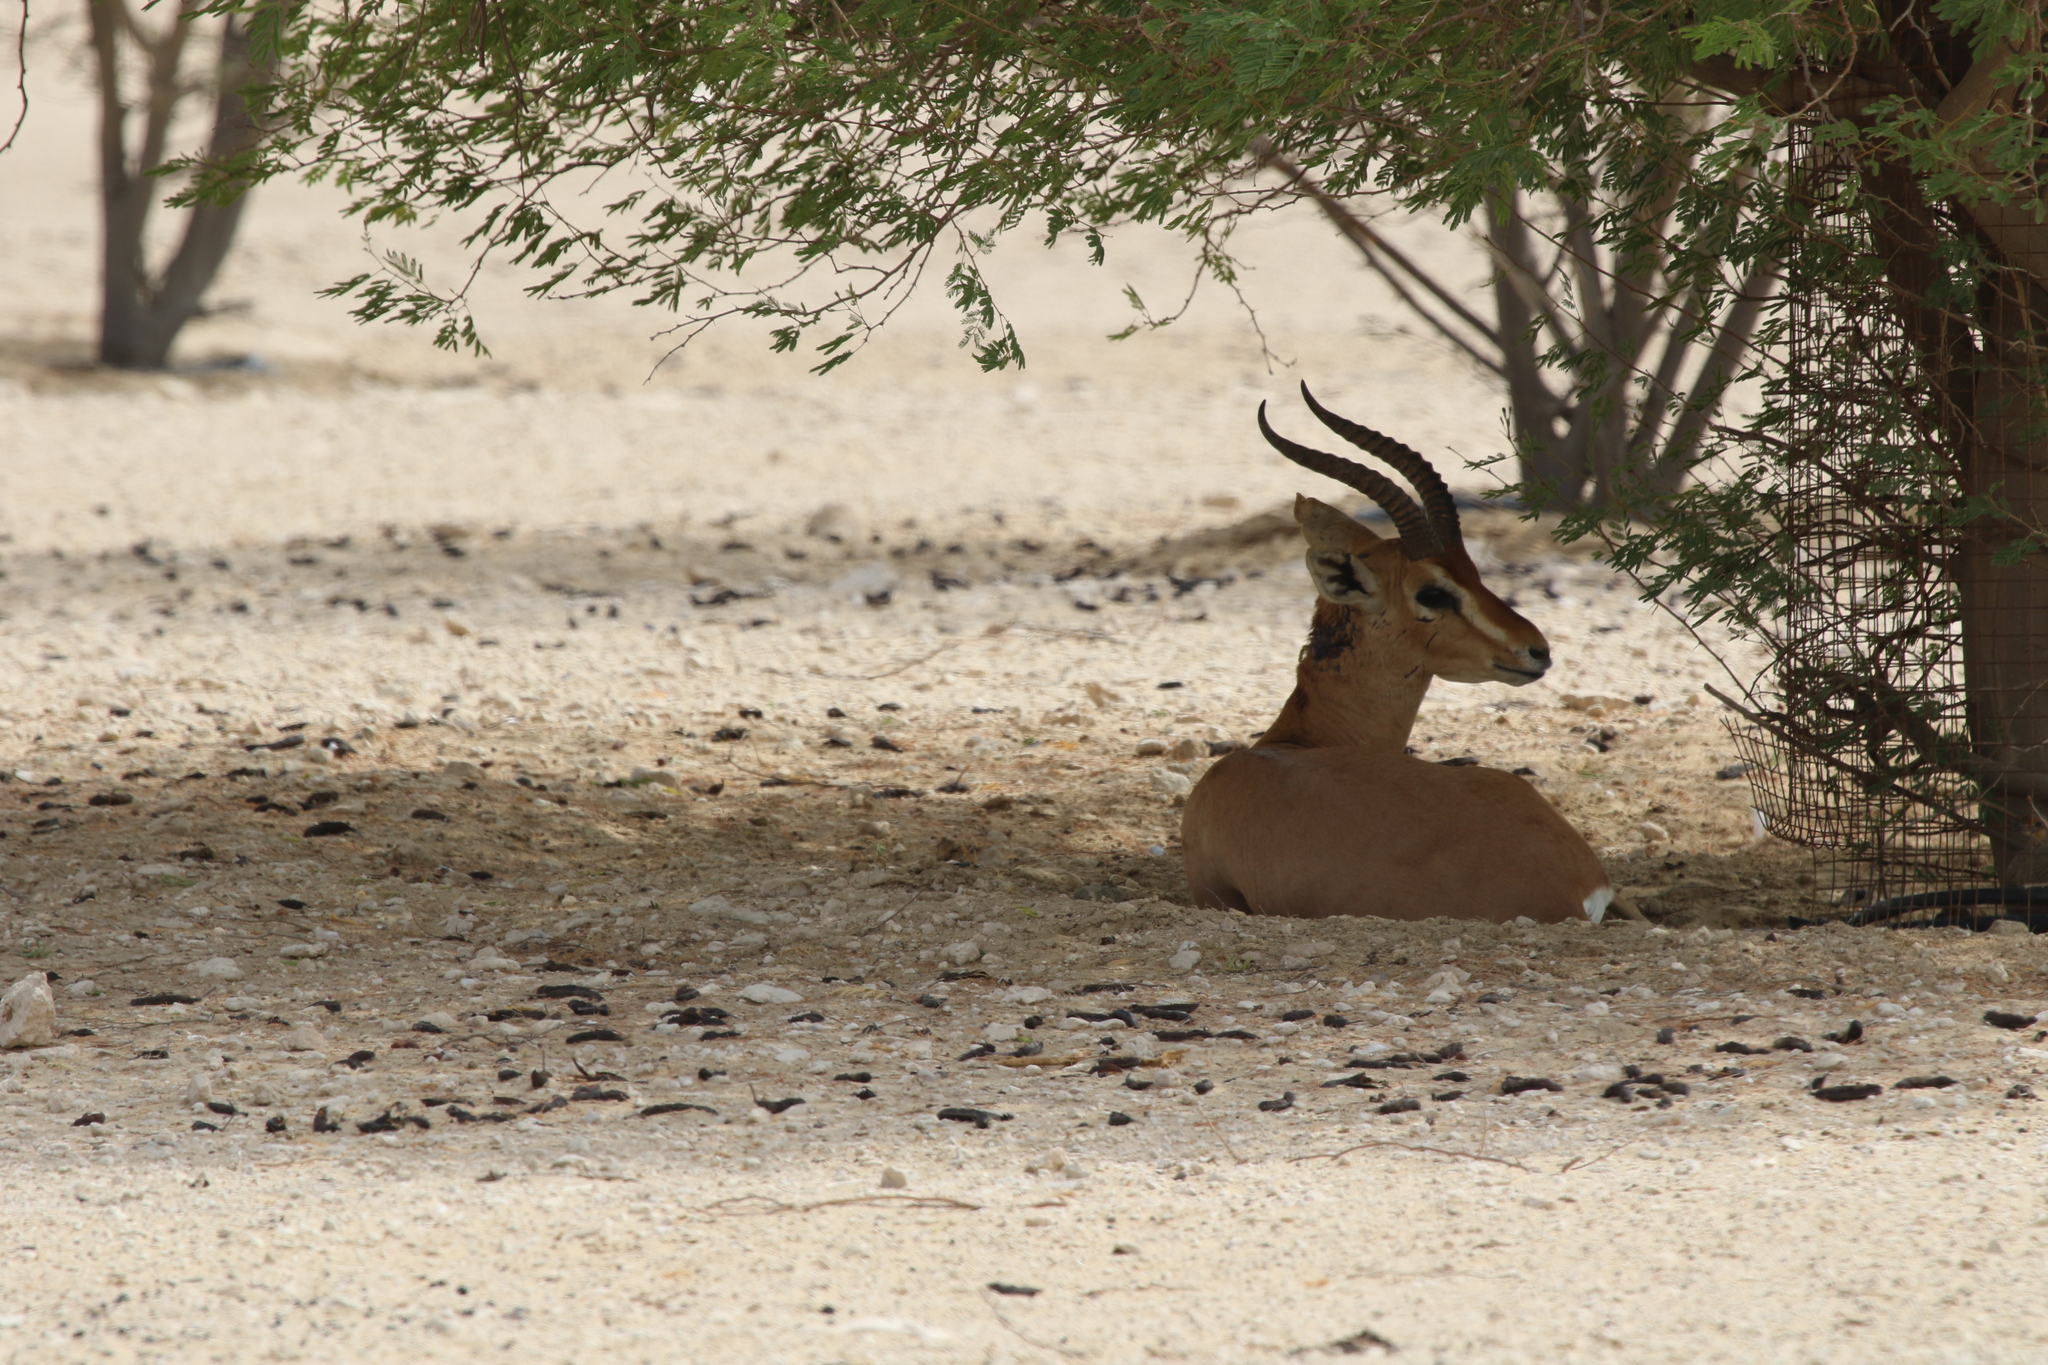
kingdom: Animalia
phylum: Chordata
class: Mammalia
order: Artiodactyla
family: Bovidae
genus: Gazella
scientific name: Gazella arabica
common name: Arabian gazelle
